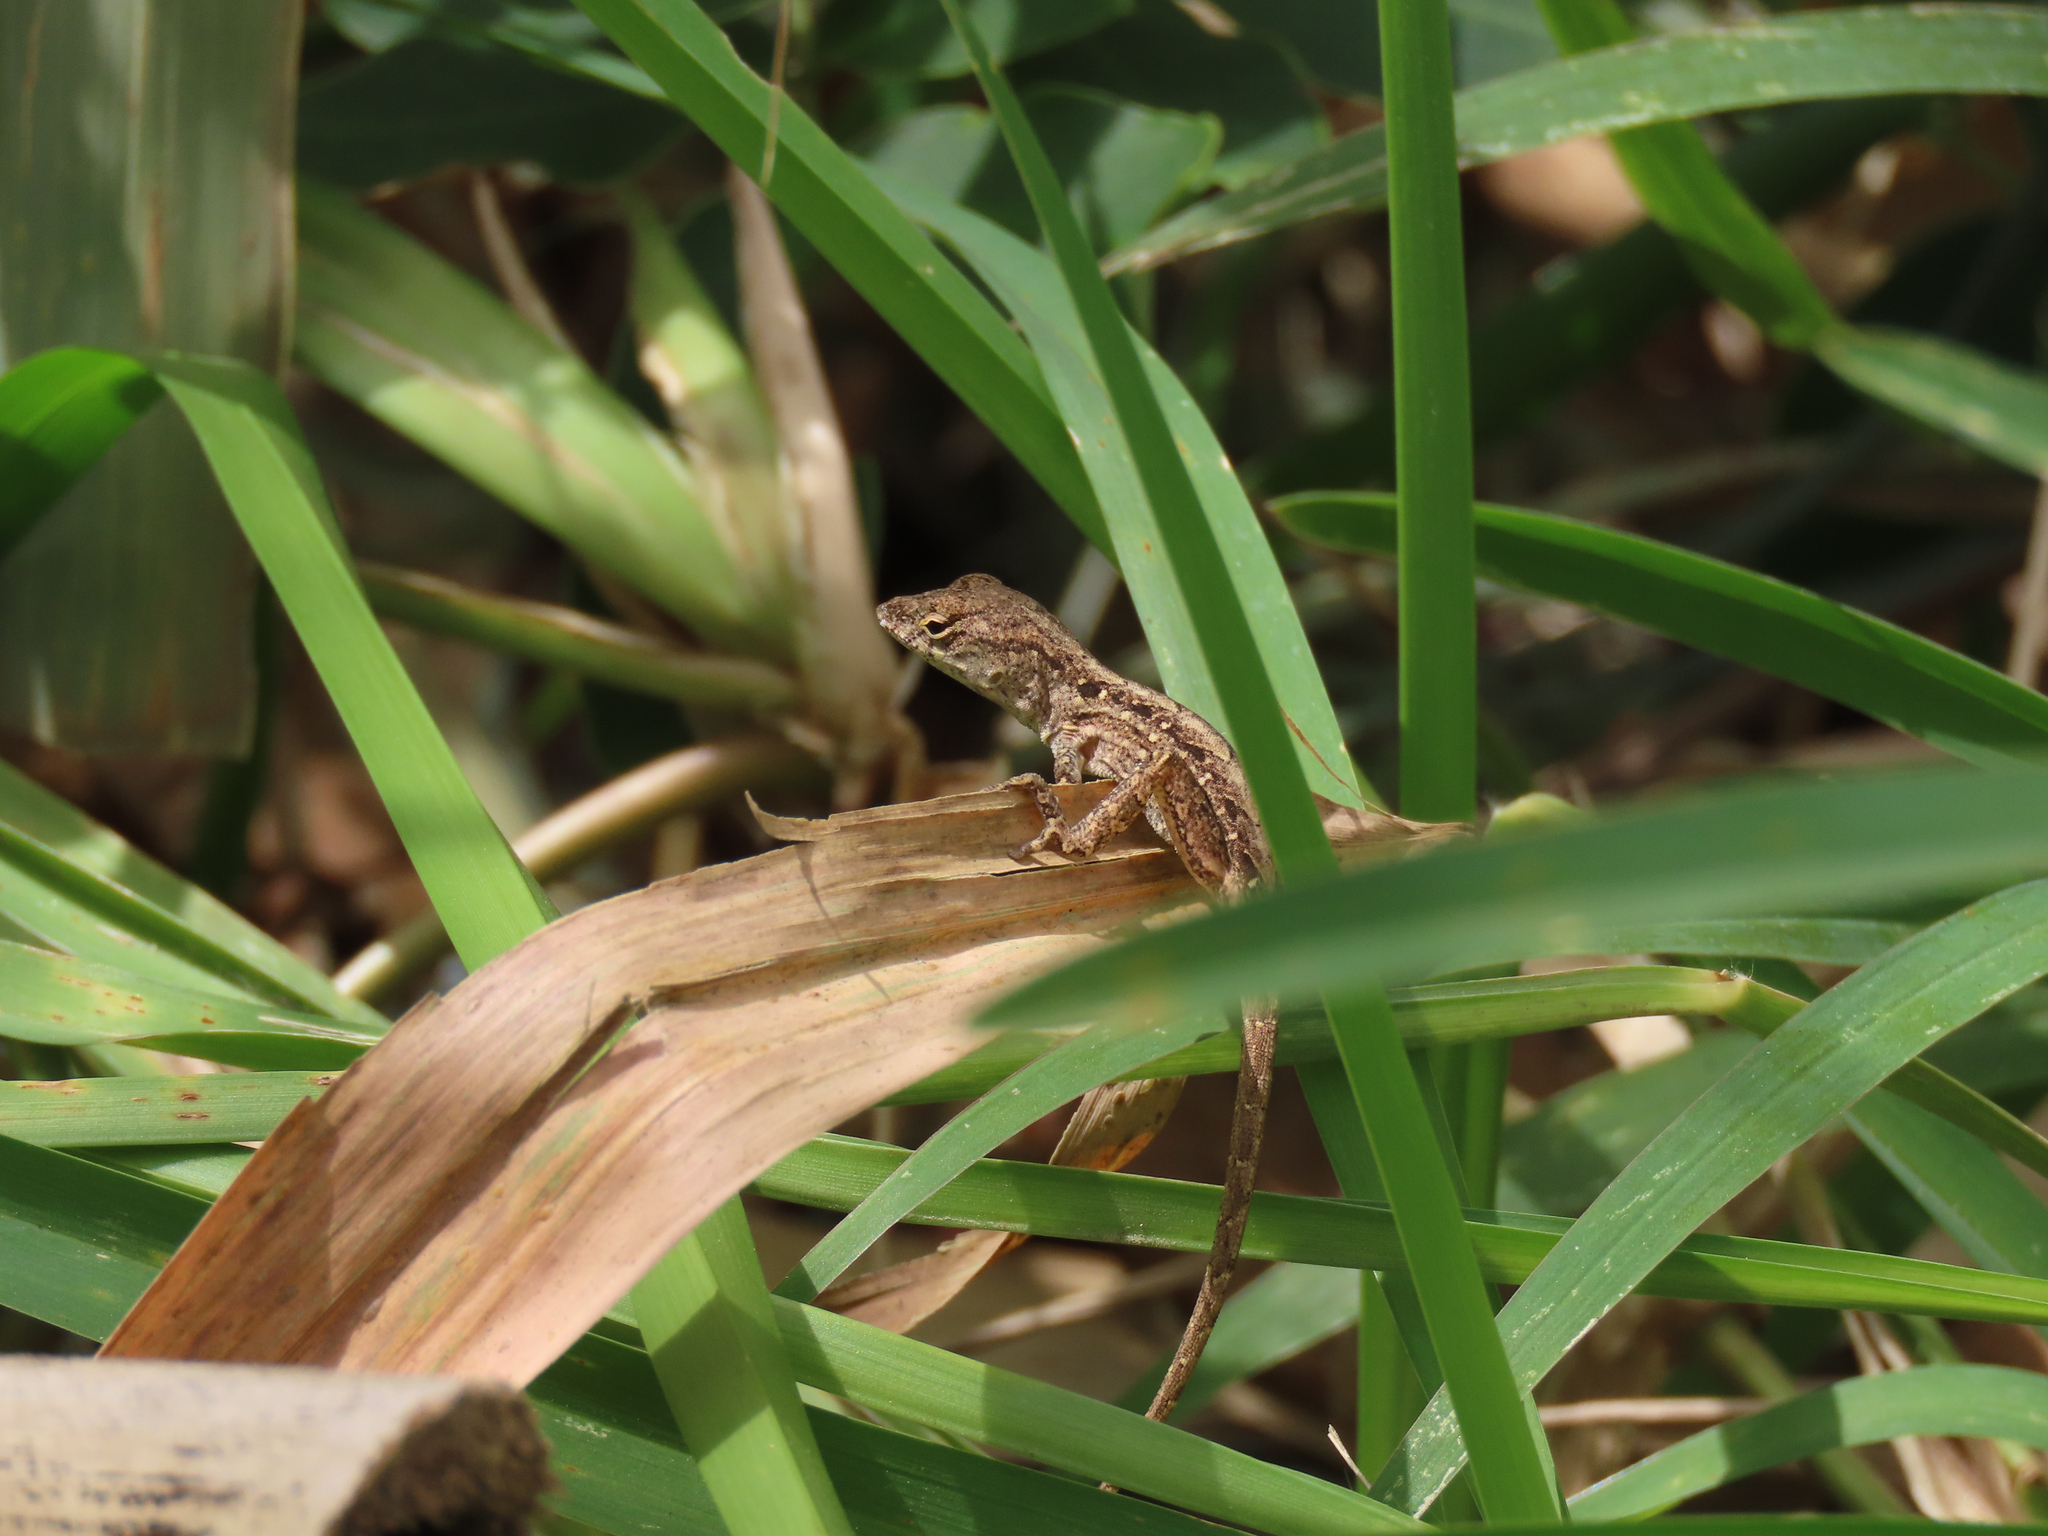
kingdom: Animalia
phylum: Chordata
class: Squamata
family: Dactyloidae
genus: Anolis
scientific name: Anolis sagrei
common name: Brown anole
